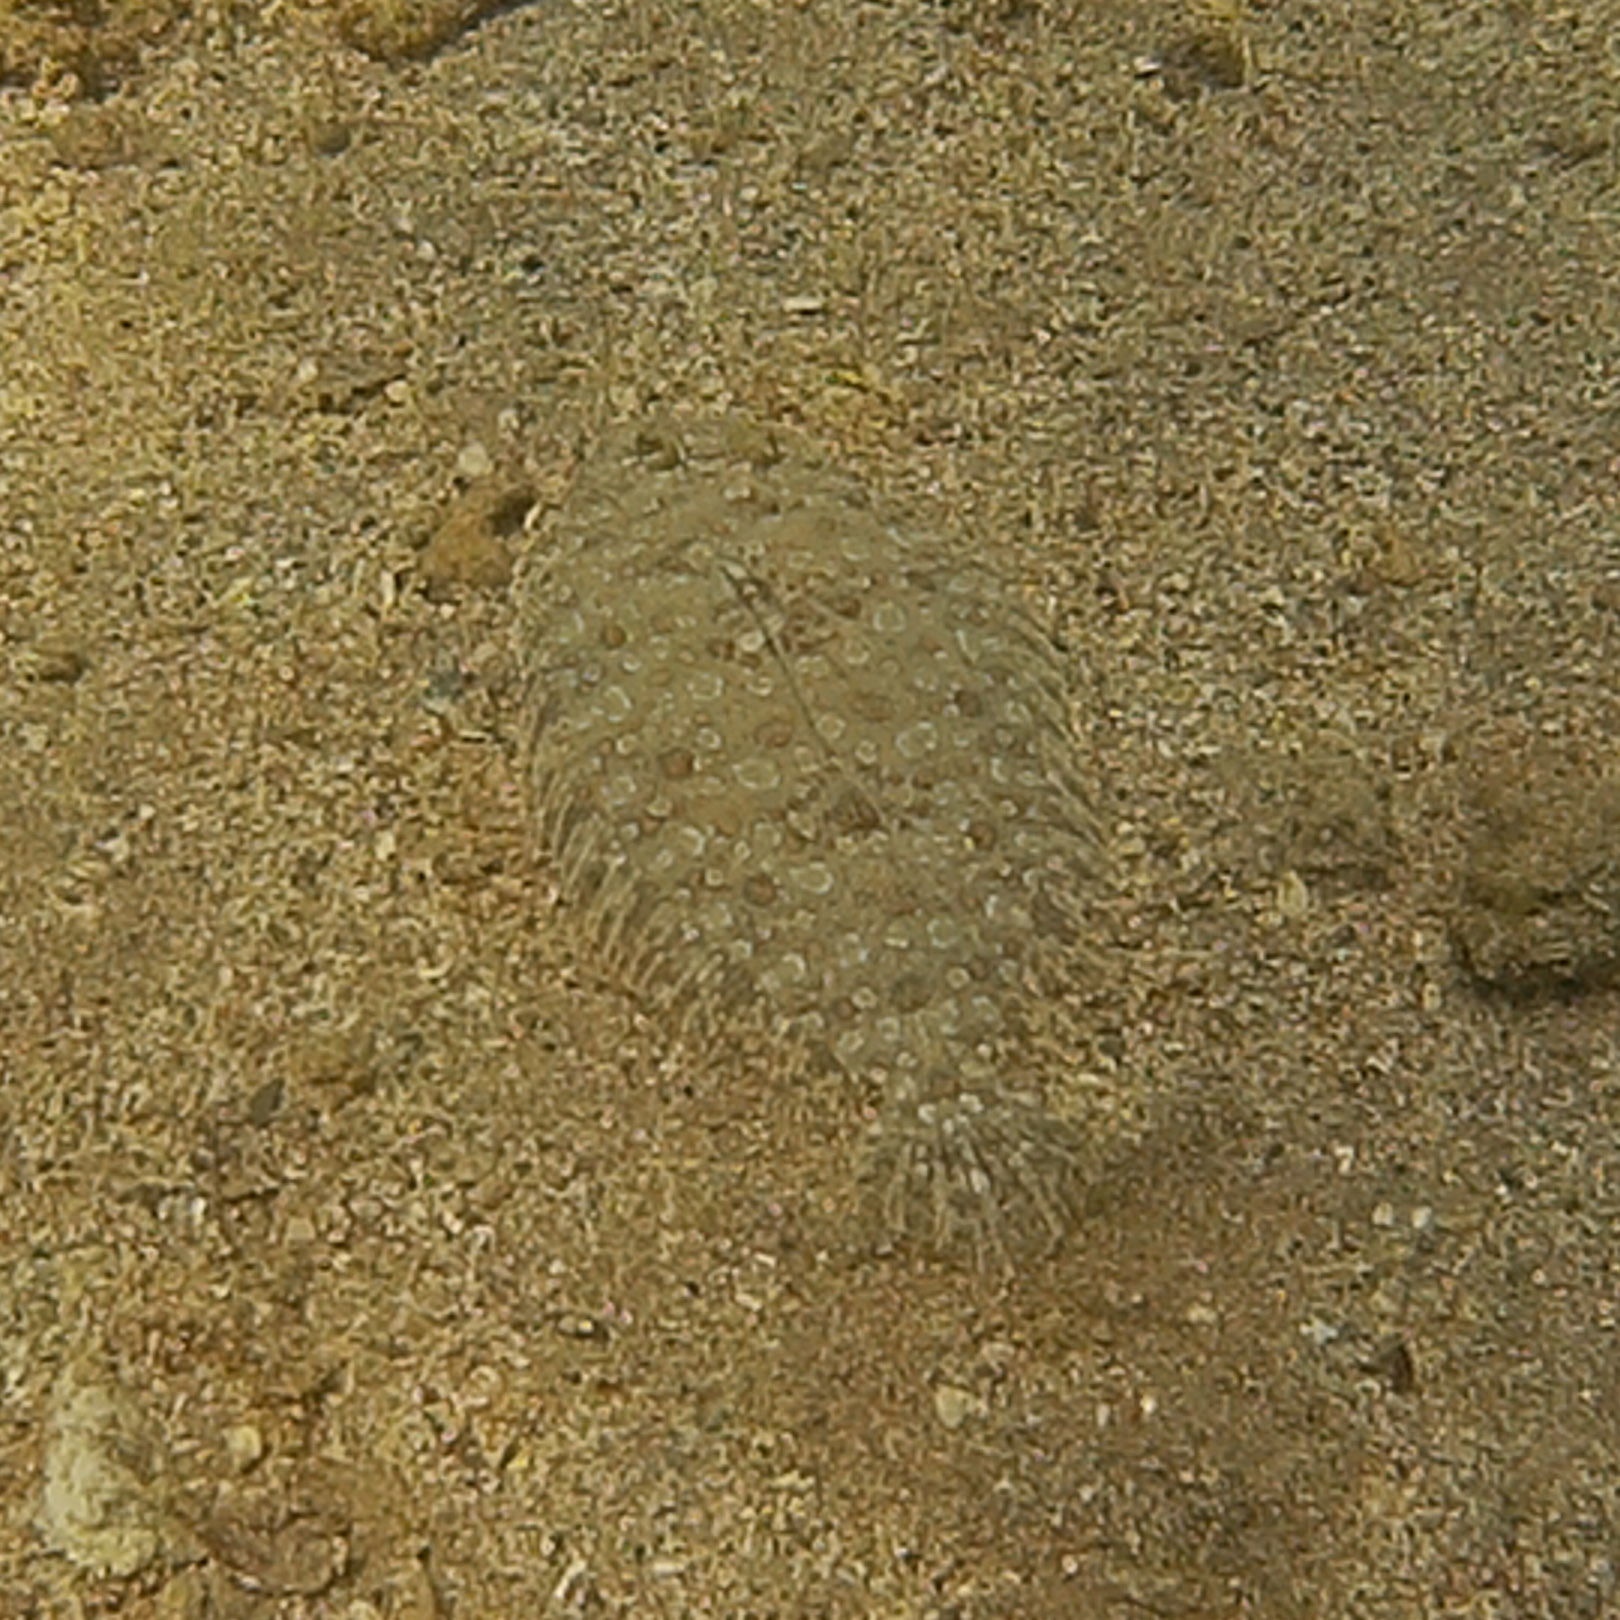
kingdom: Animalia
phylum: Chordata
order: Pleuronectiformes
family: Bothidae
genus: Bothus
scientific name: Bothus pantherinus
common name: Leopard flounder
